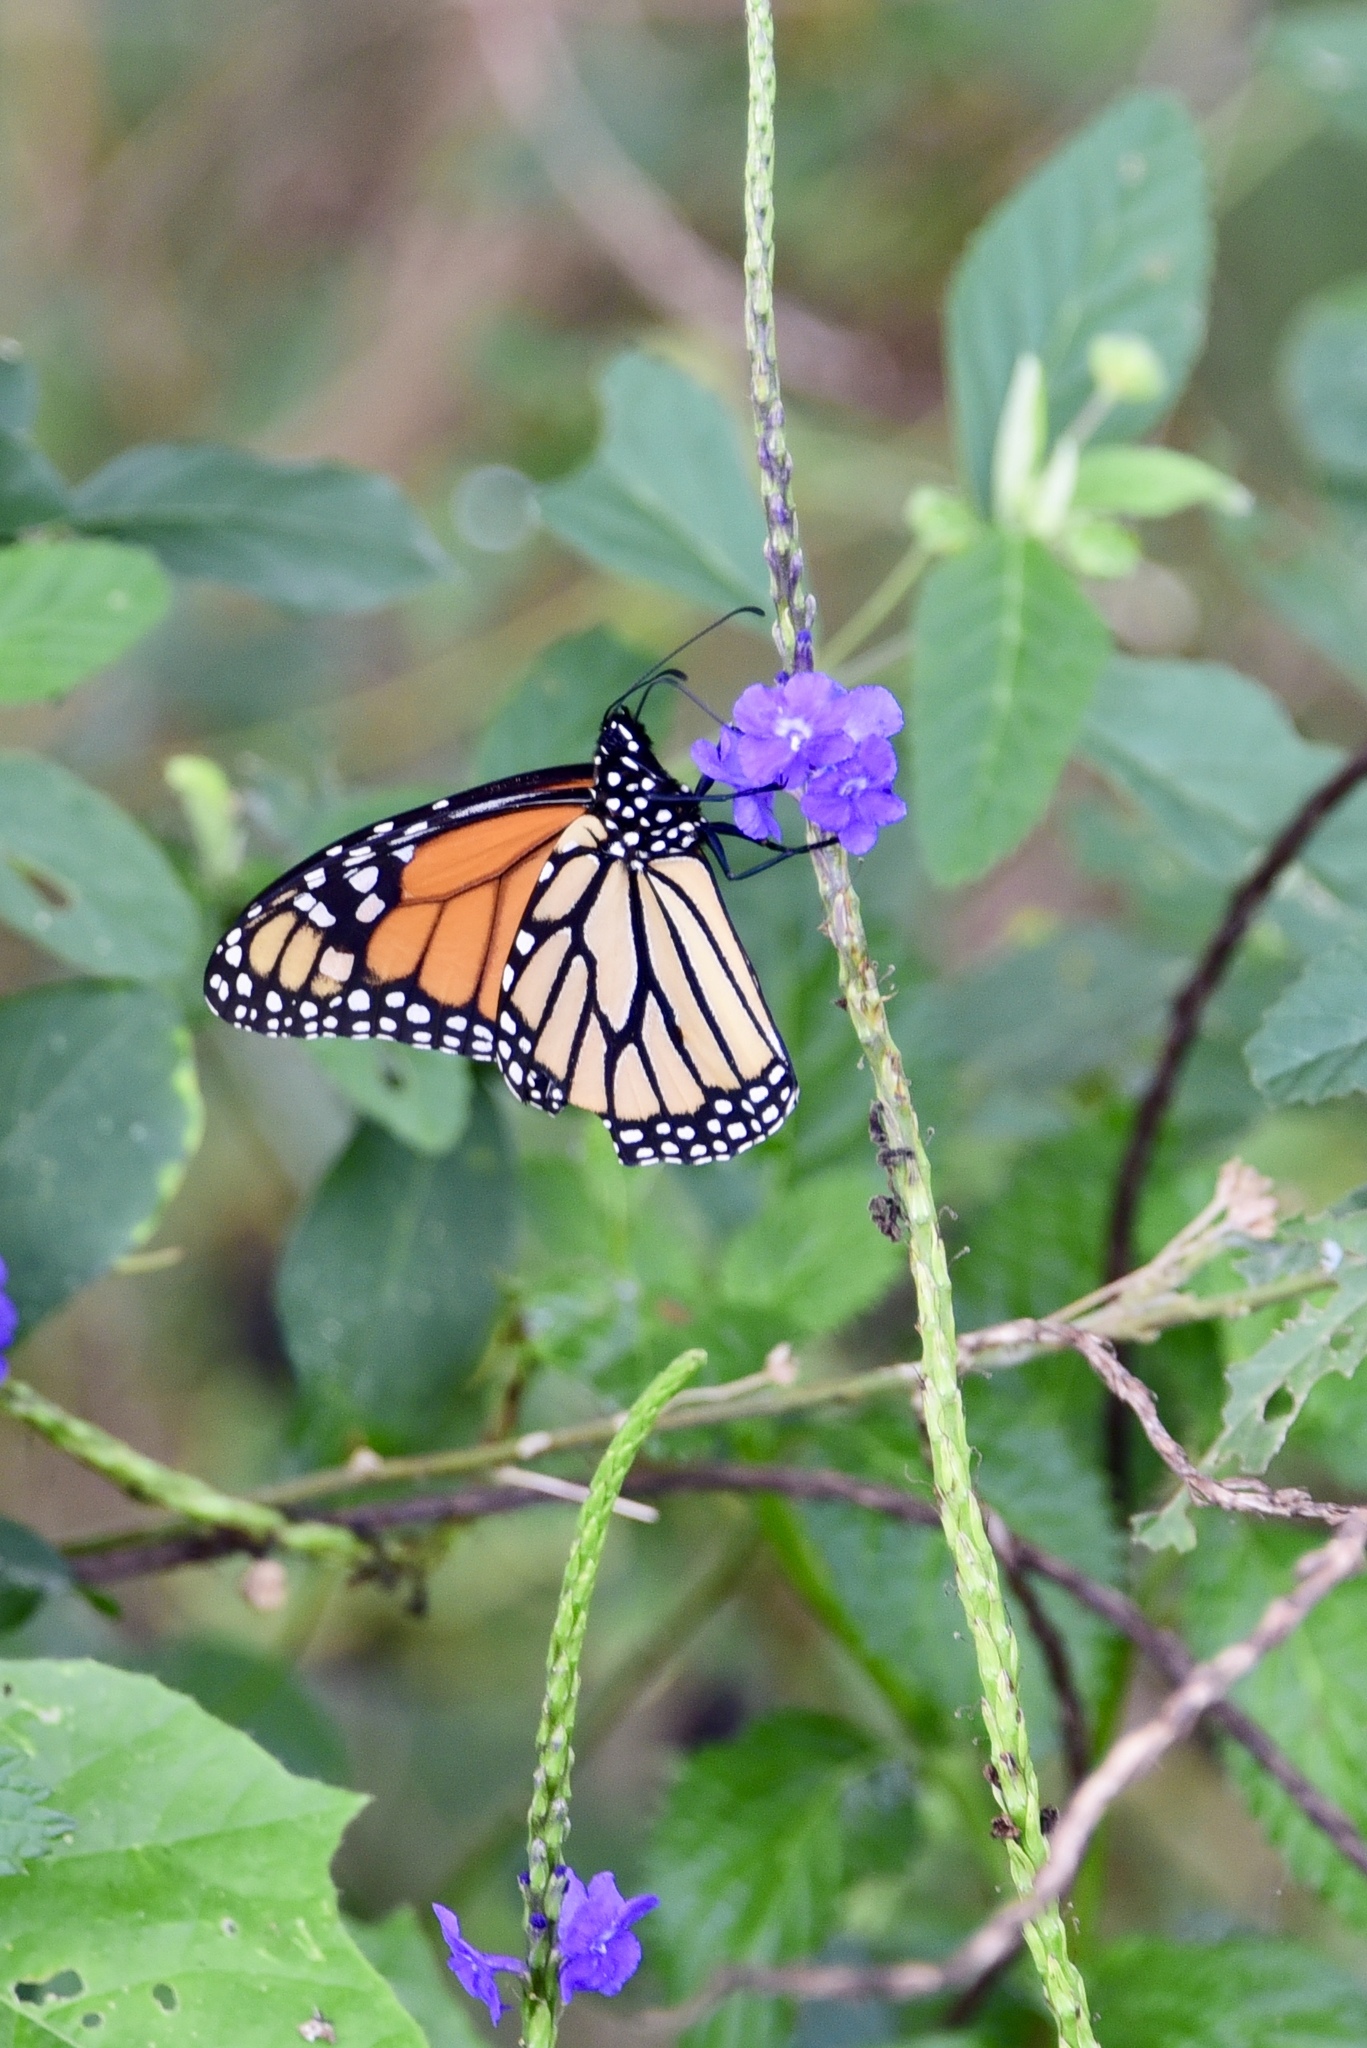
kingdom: Animalia
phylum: Arthropoda
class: Insecta
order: Lepidoptera
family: Nymphalidae
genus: Danaus
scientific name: Danaus plexippus
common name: Monarch
